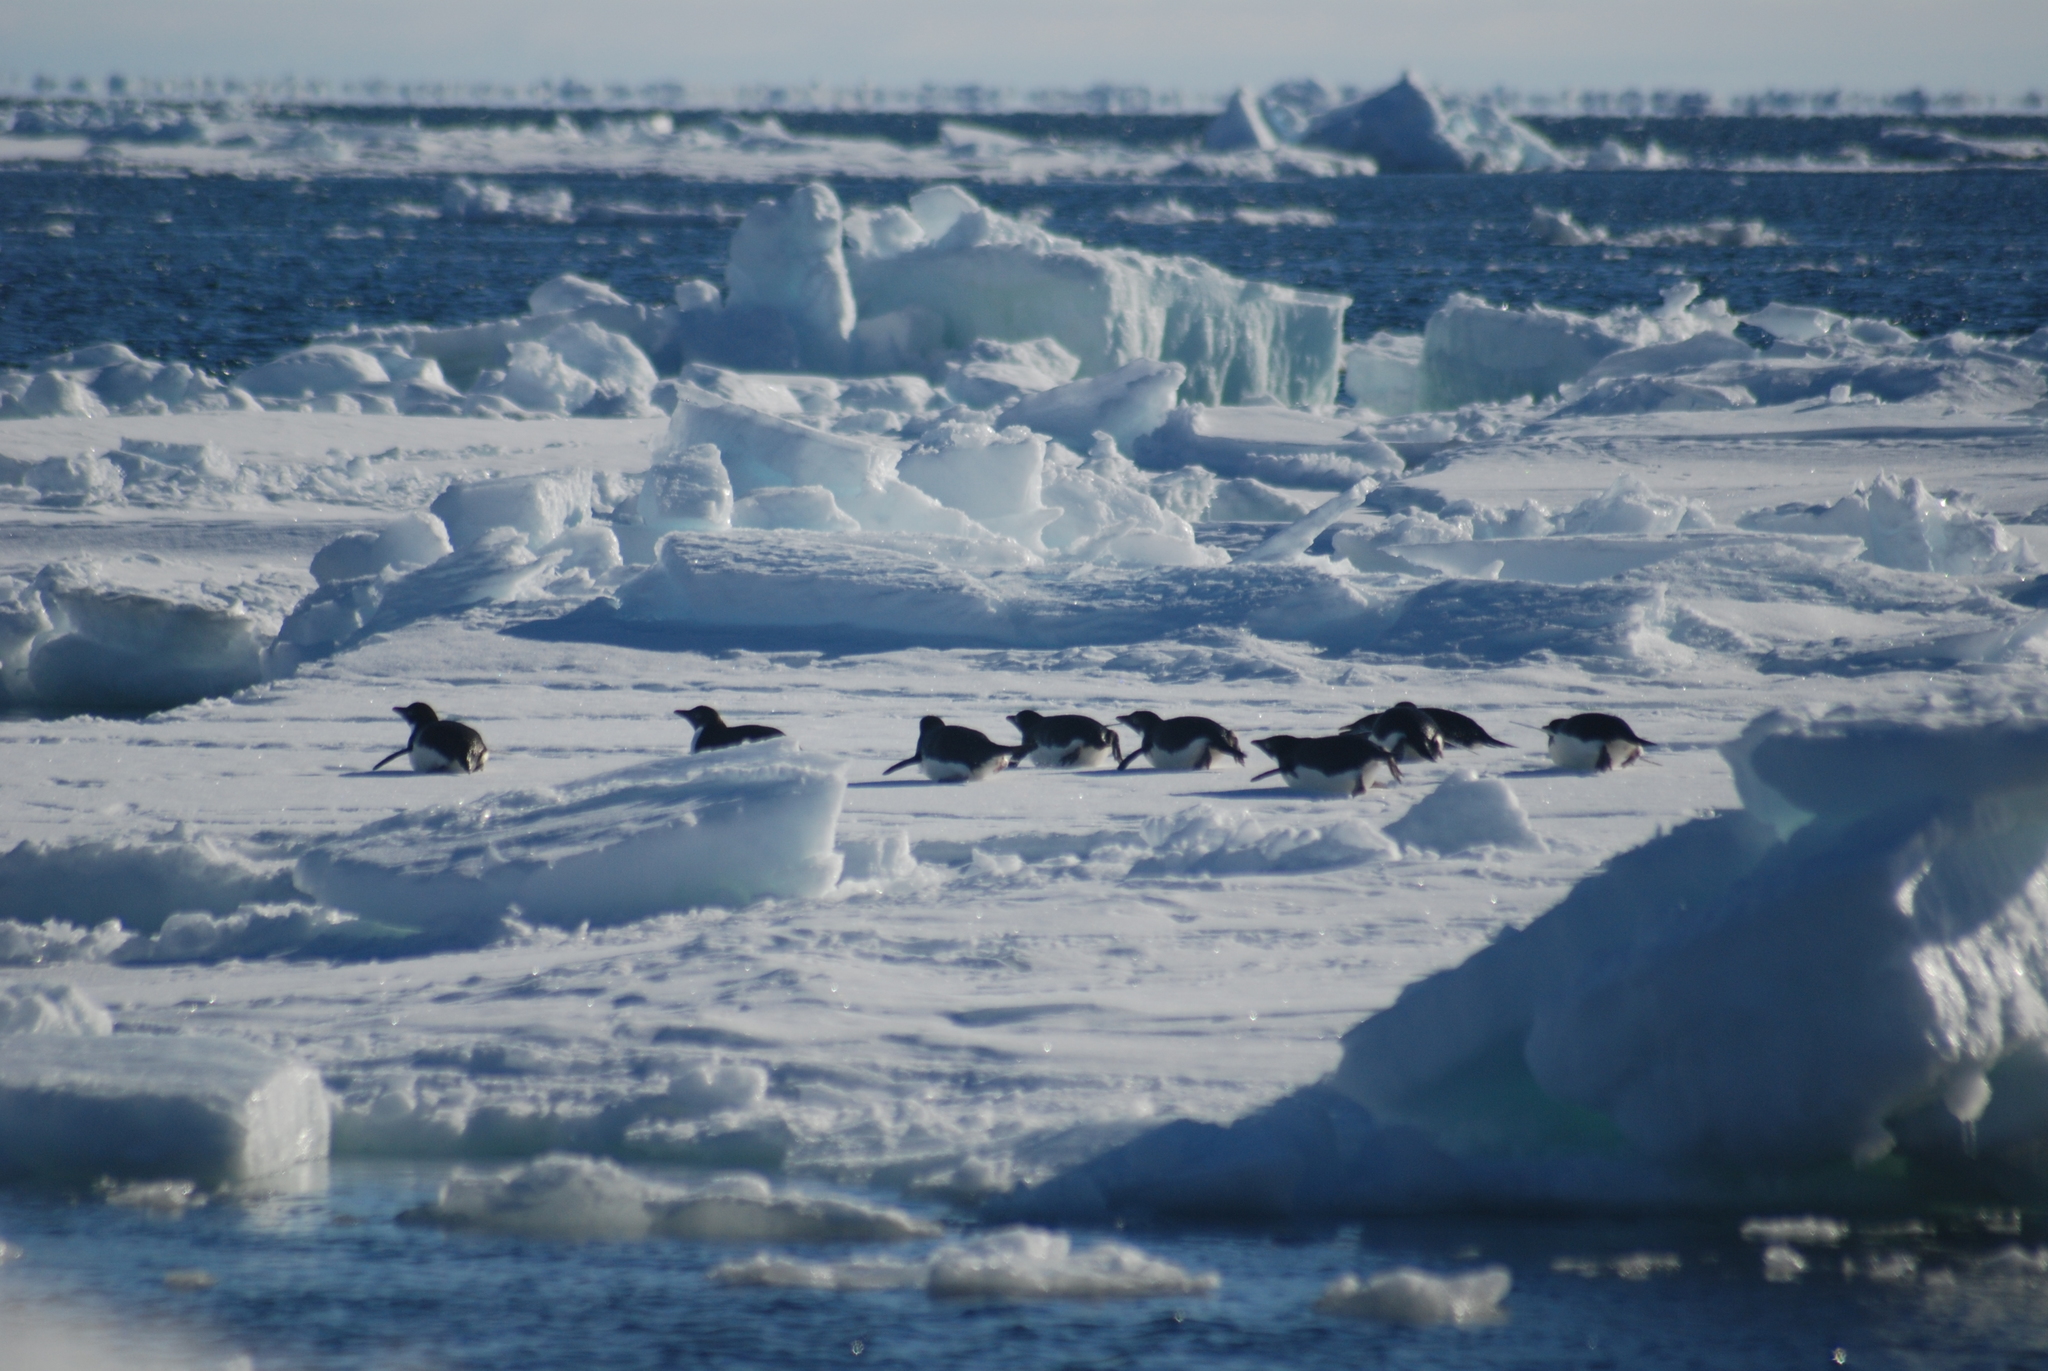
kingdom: Animalia
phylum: Chordata
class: Aves
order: Sphenisciformes
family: Spheniscidae
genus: Pygoscelis
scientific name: Pygoscelis adeliae
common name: Adelie penguin
